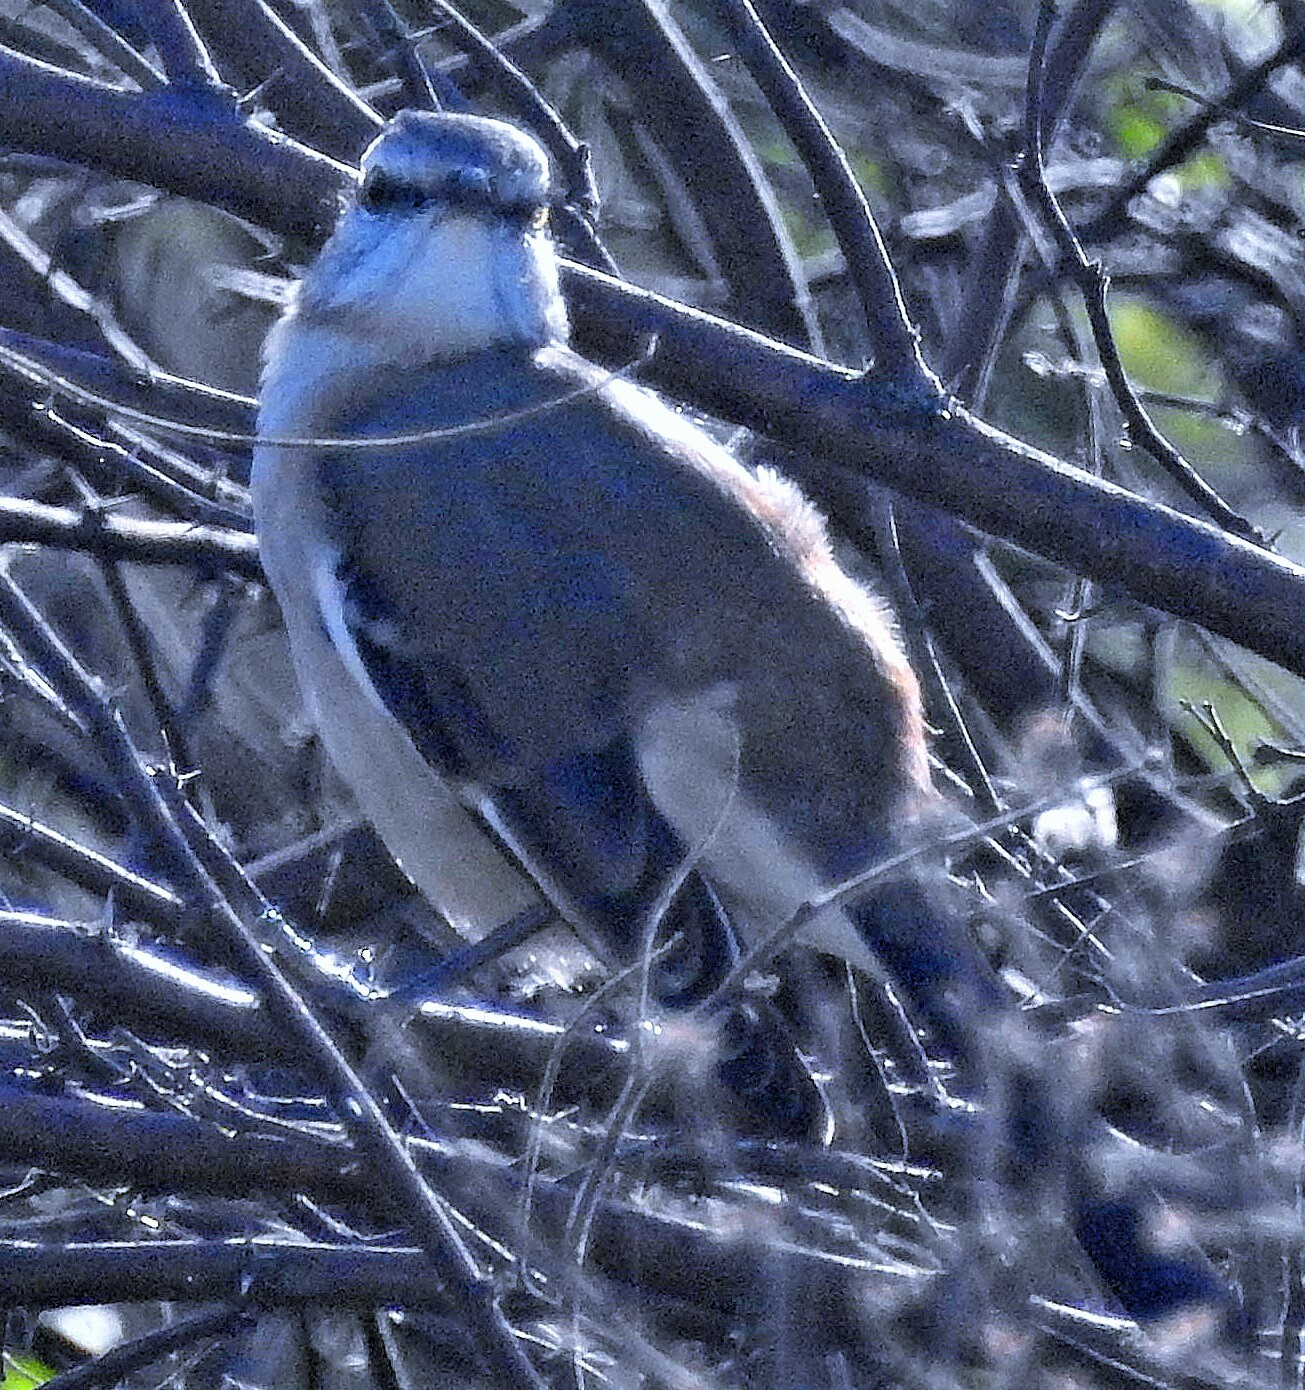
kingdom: Animalia
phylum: Chordata
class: Aves
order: Passeriformes
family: Mimidae
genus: Mimus
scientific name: Mimus triurus
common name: White-banded mockingbird
